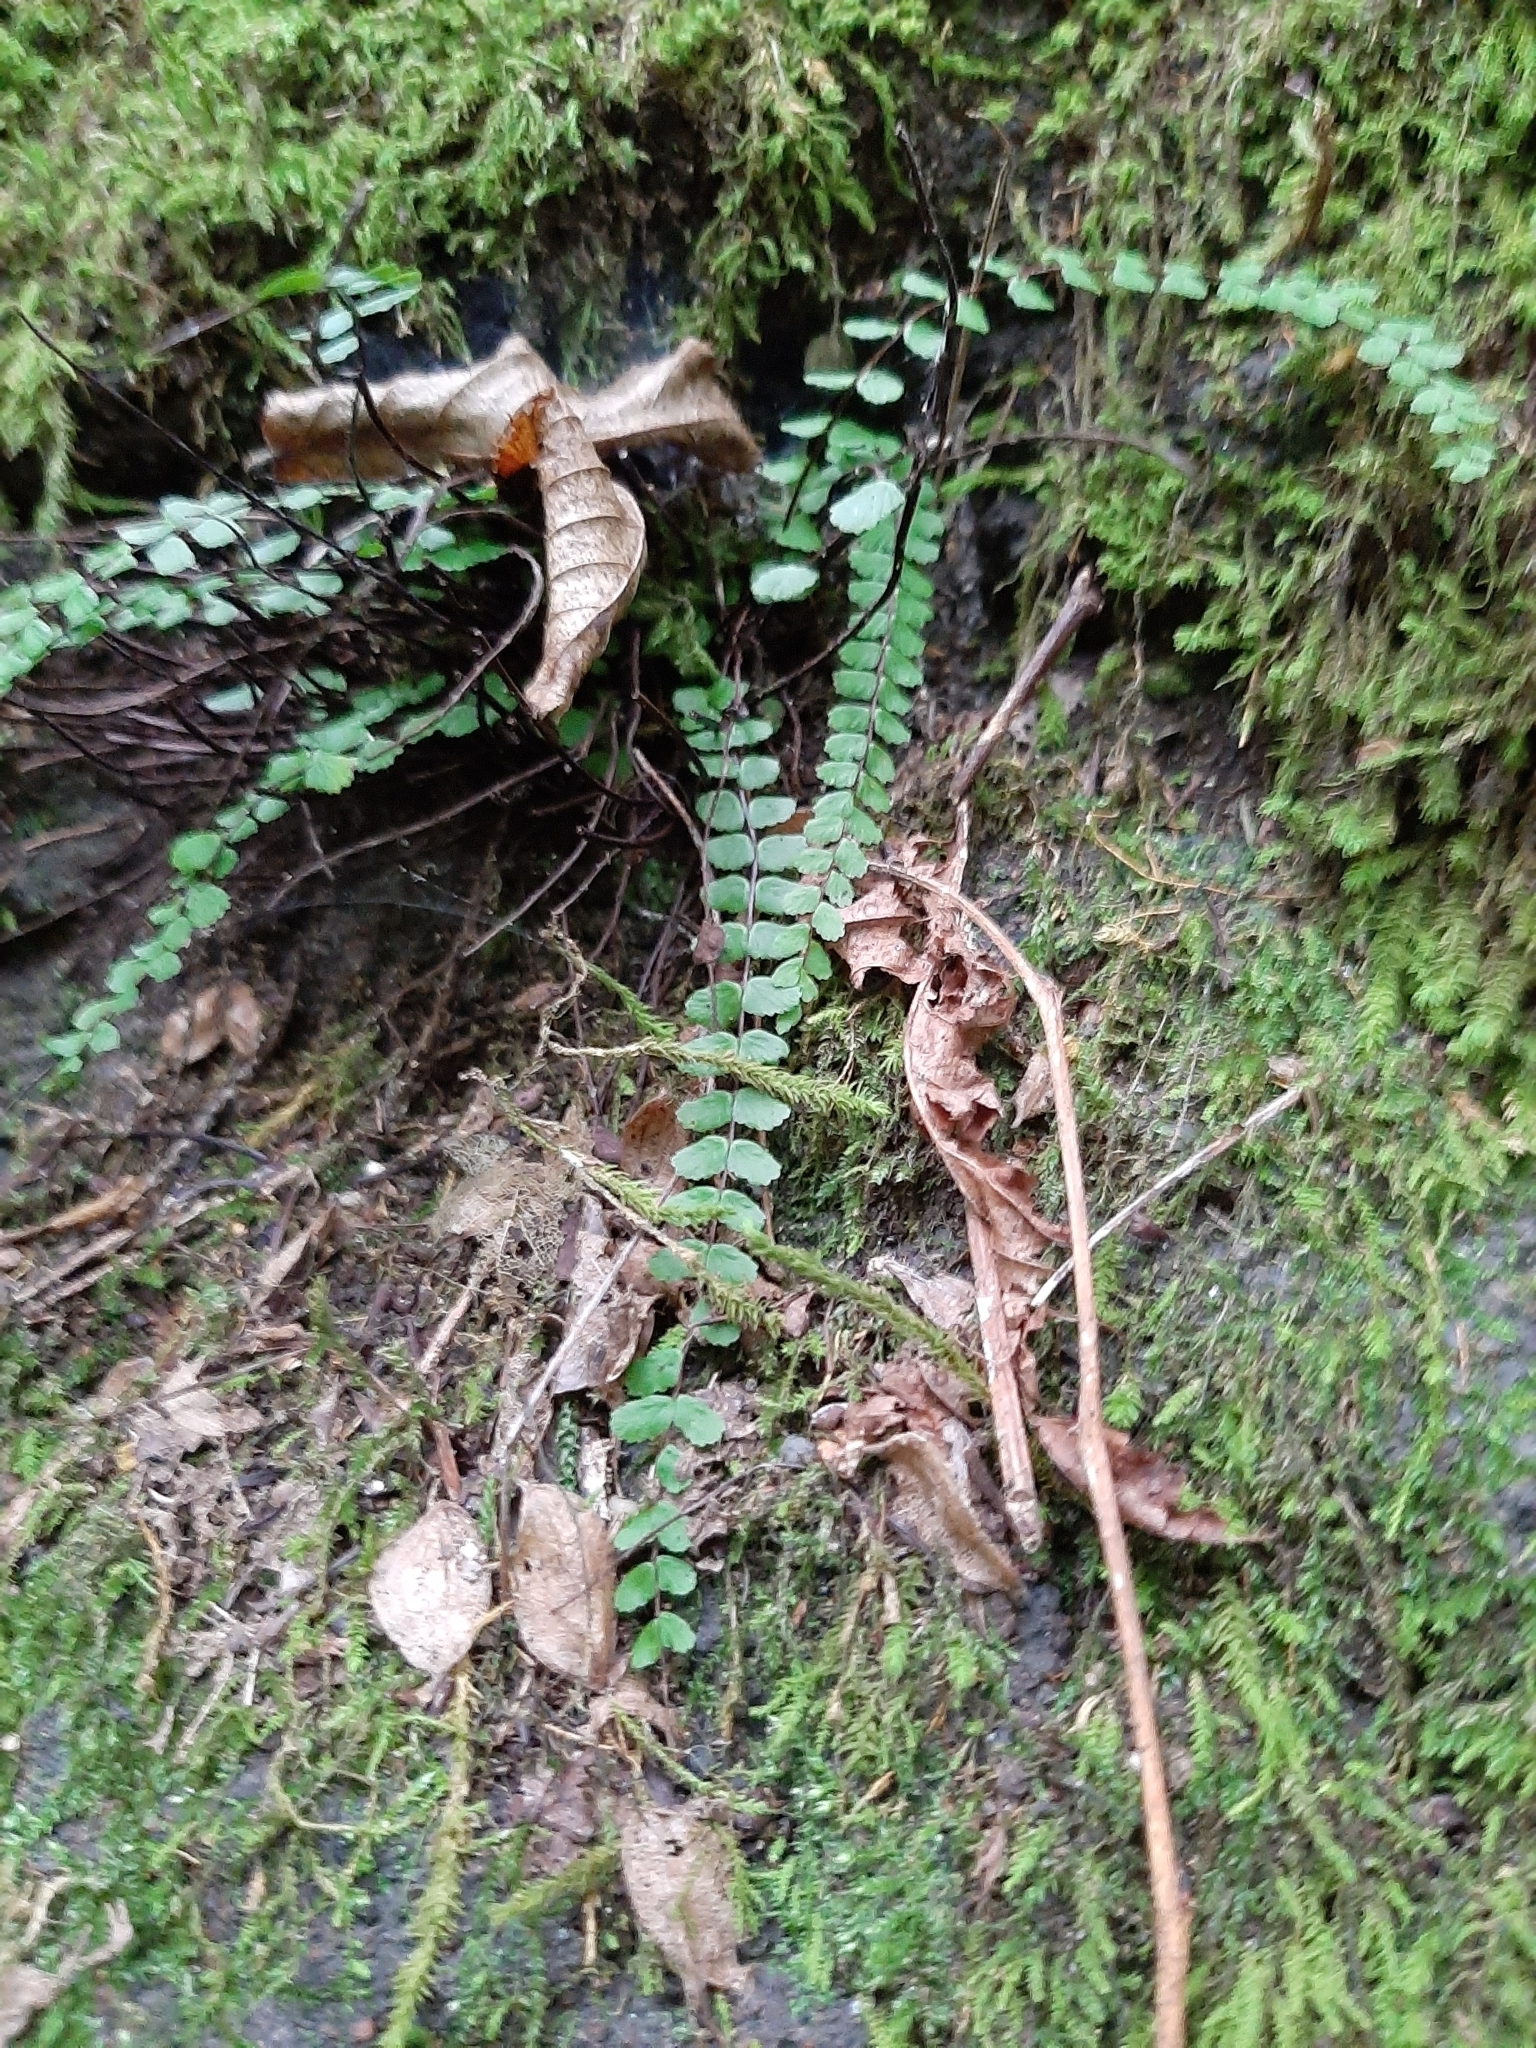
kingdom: Plantae
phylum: Tracheophyta
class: Polypodiopsida
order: Polypodiales
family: Aspleniaceae
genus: Asplenium
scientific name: Asplenium trichomanes
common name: Maidenhair spleenwort
